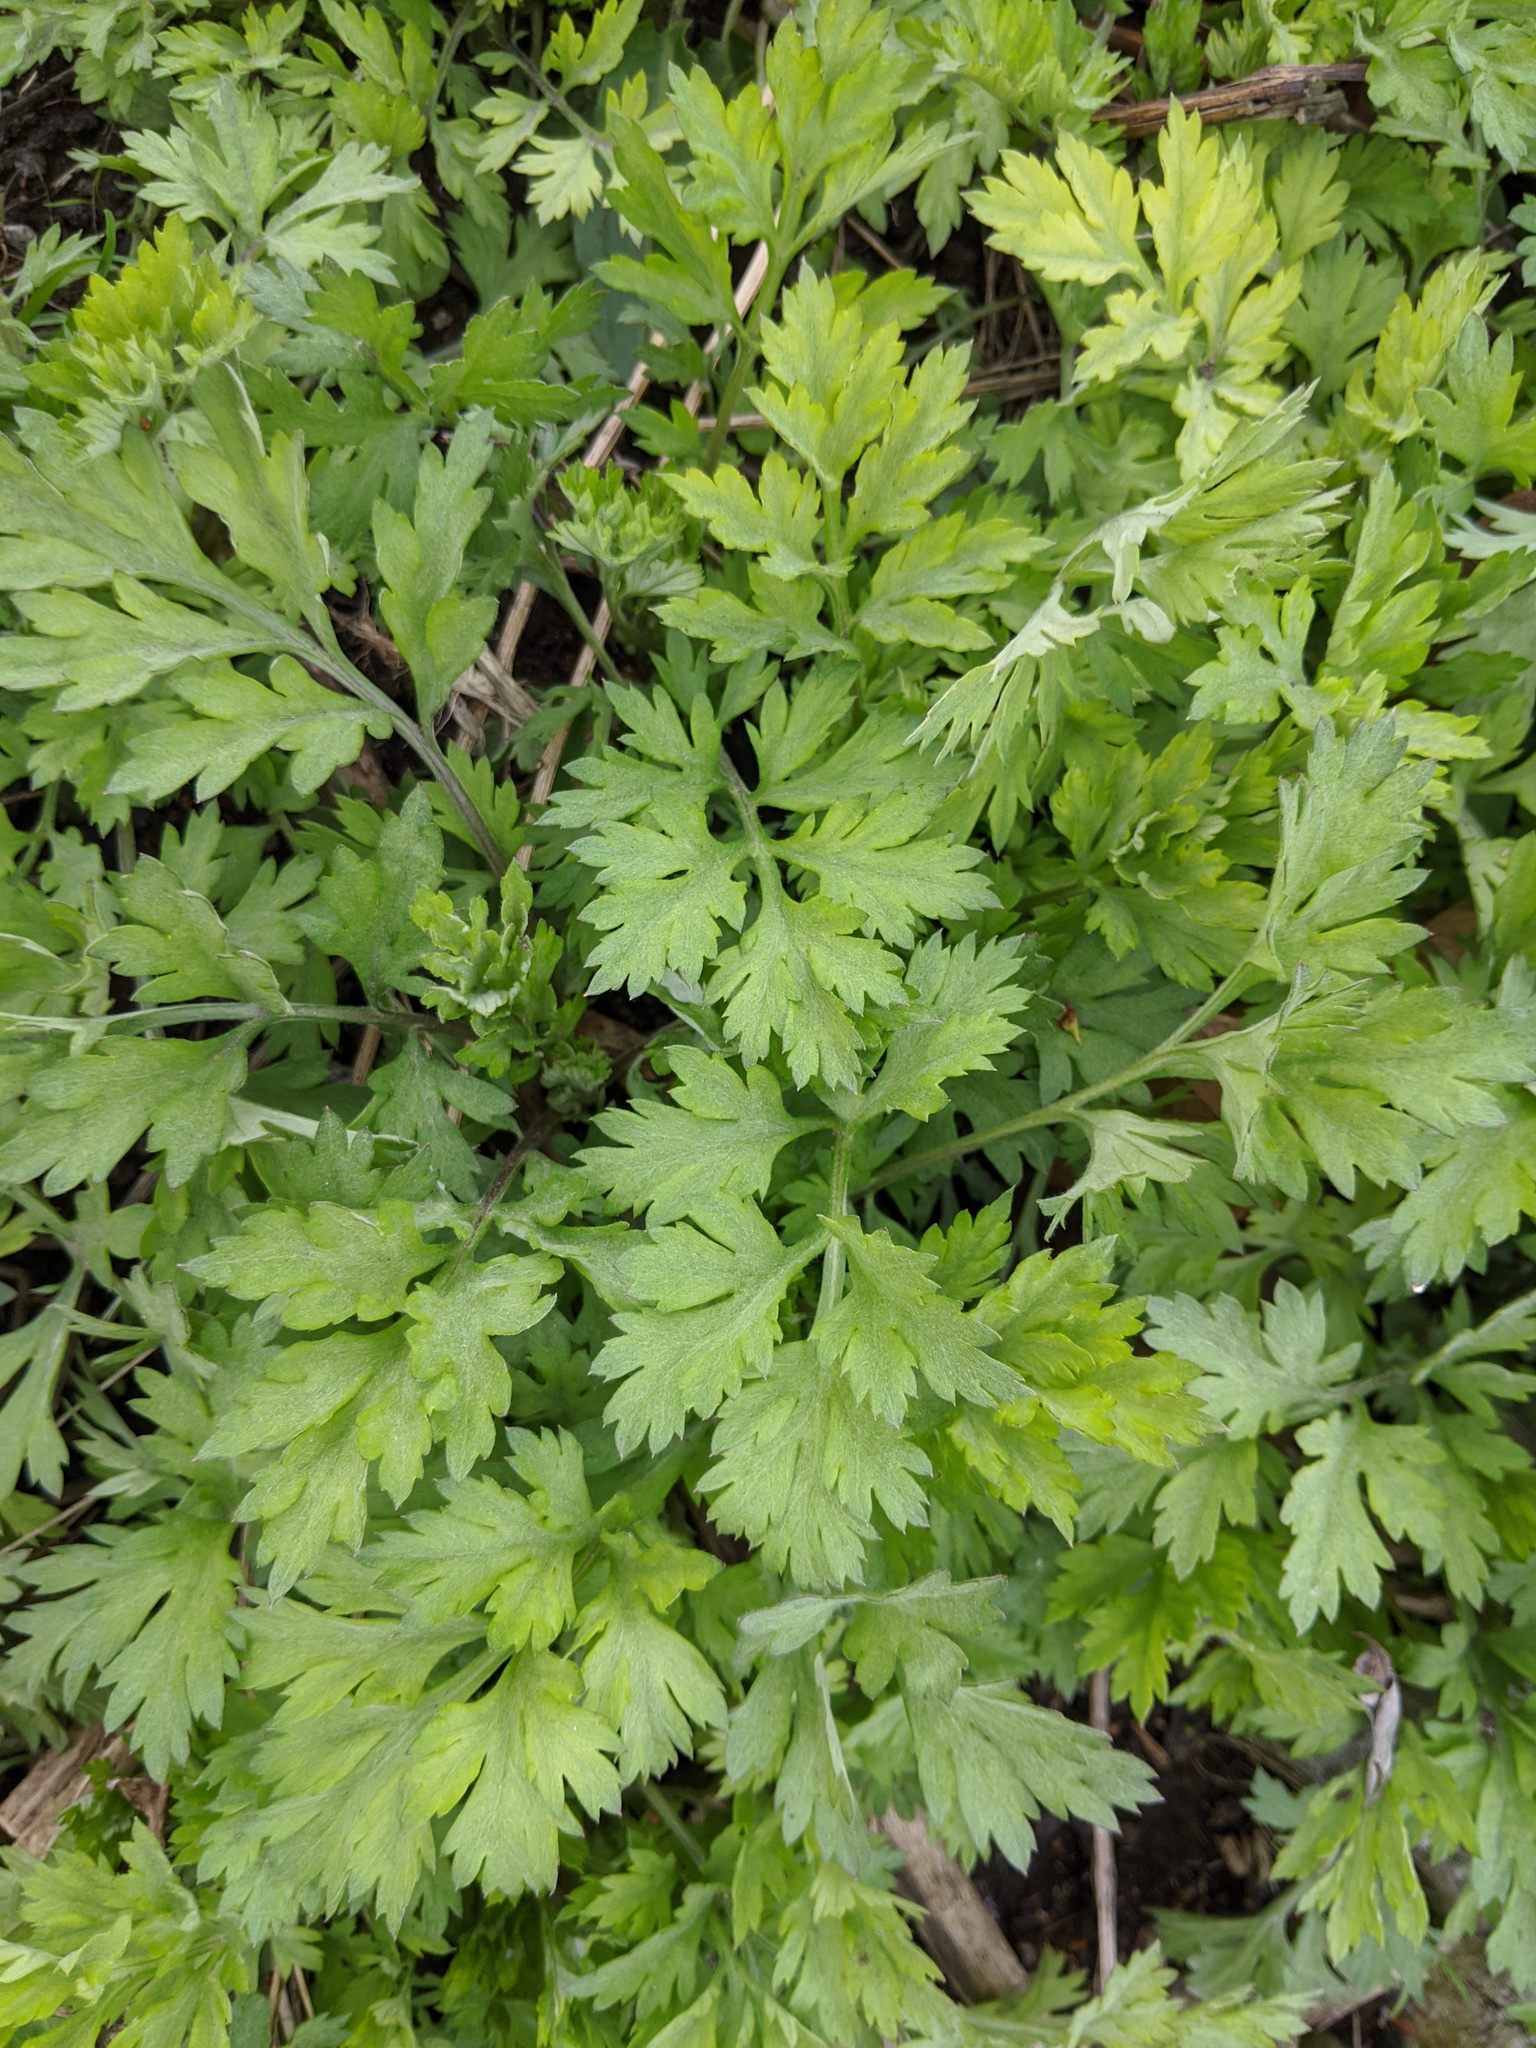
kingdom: Plantae
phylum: Tracheophyta
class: Magnoliopsida
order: Asterales
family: Asteraceae
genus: Artemisia
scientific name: Artemisia vulgaris
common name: Mugwort
